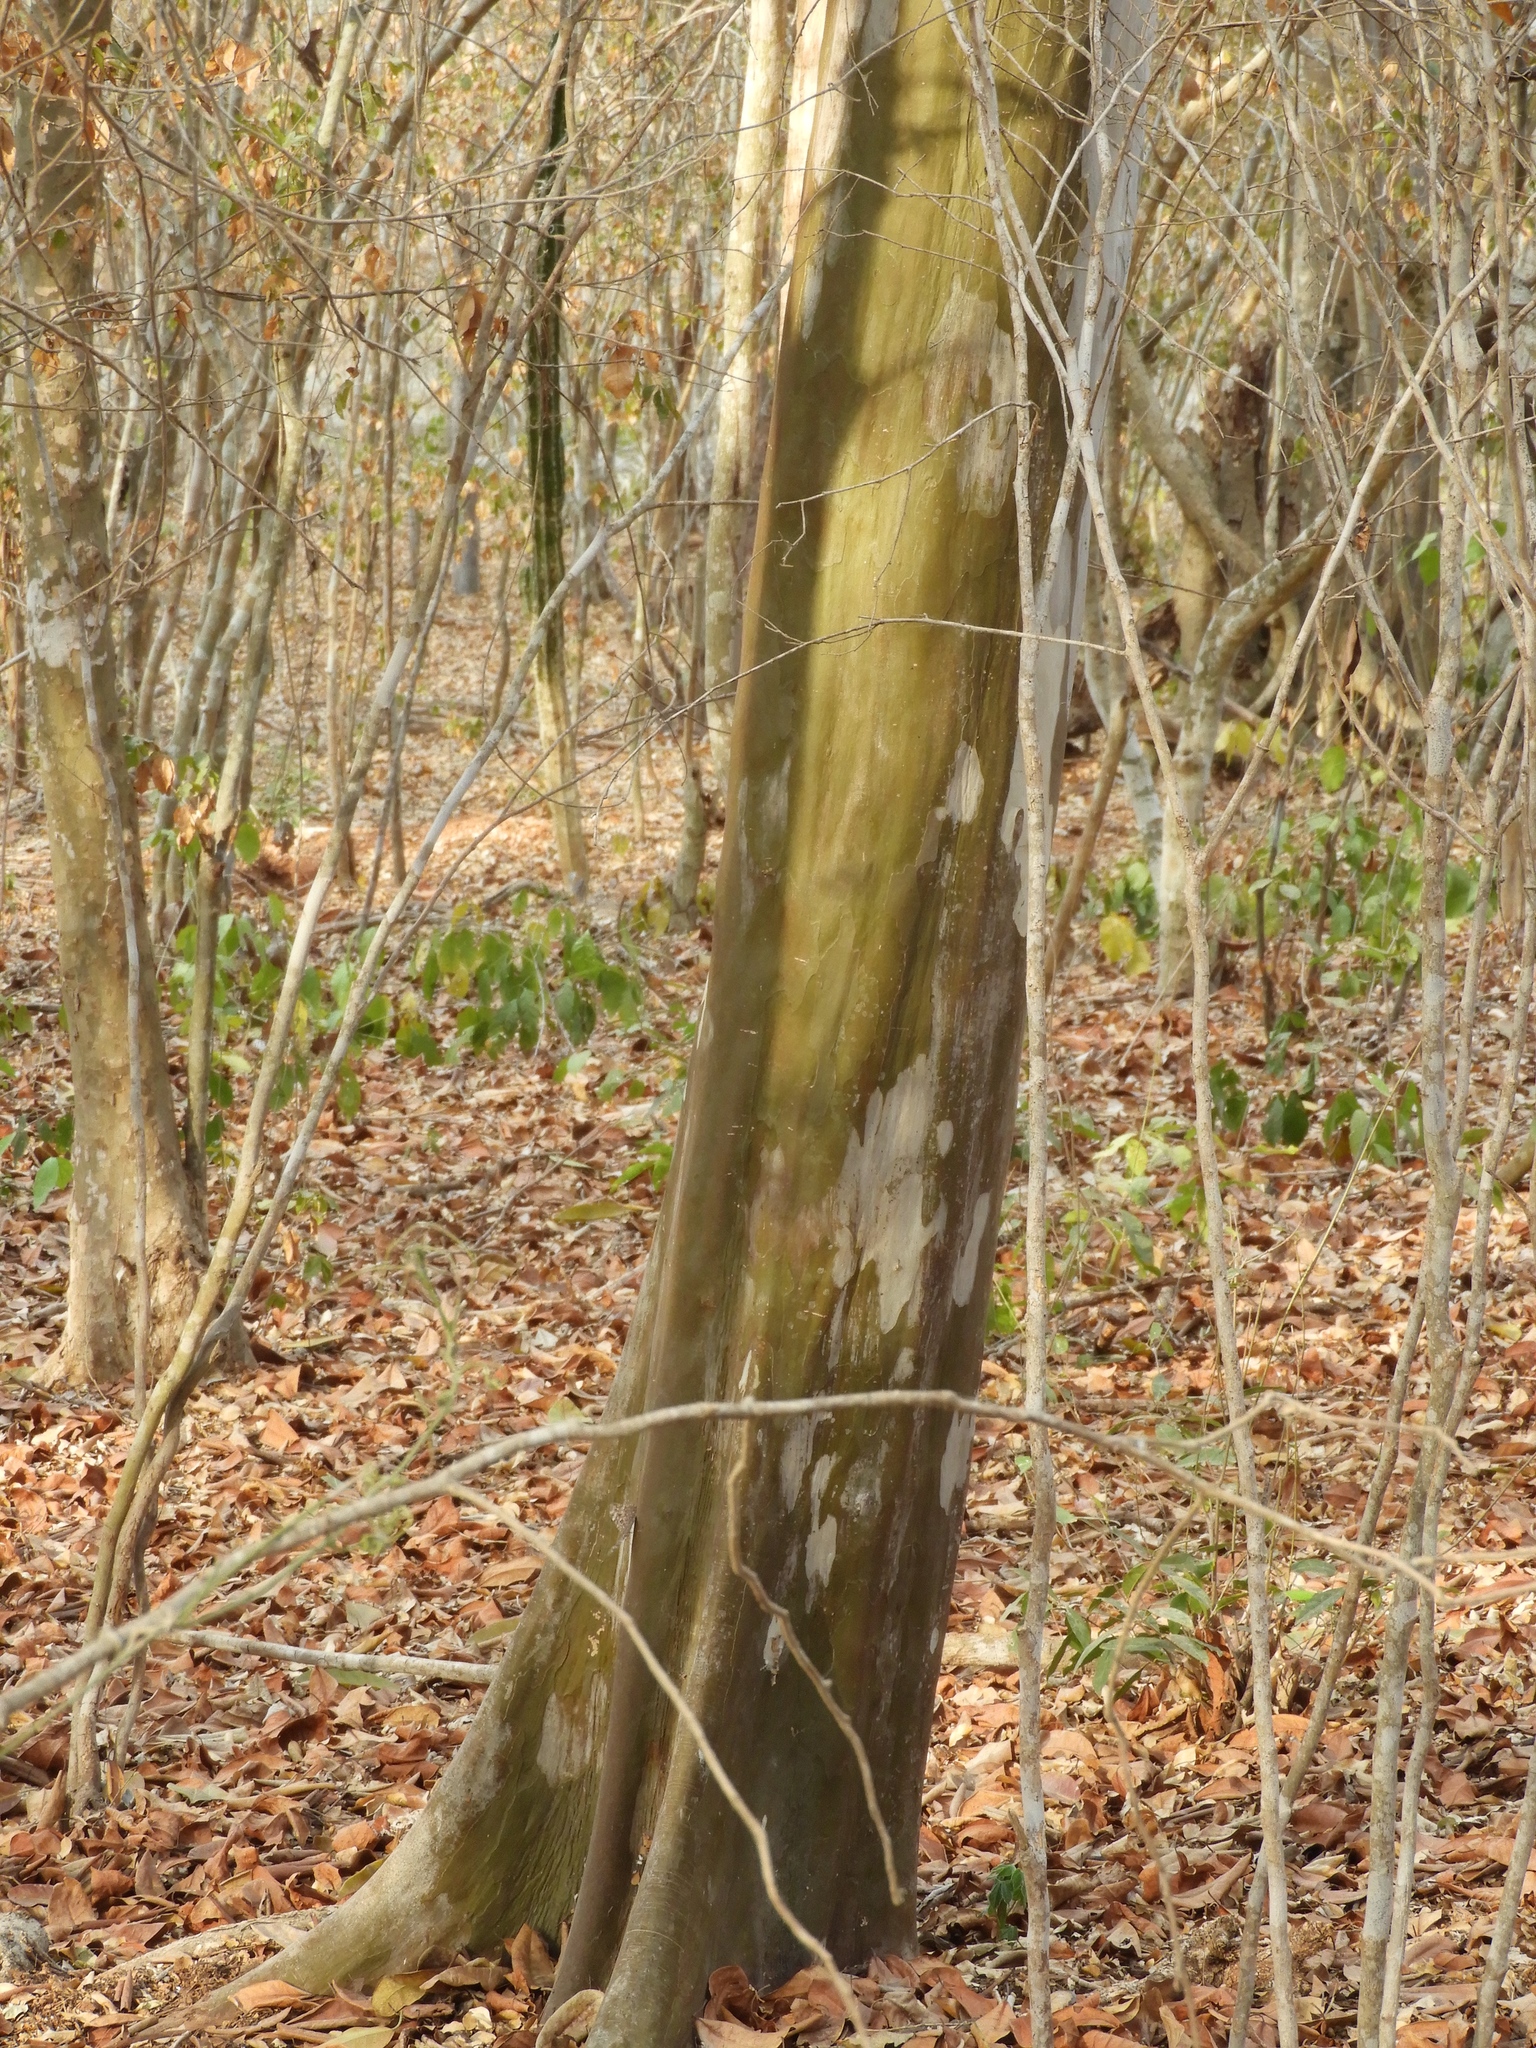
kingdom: Plantae
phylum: Tracheophyta
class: Magnoliopsida
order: Fabales
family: Fabaceae
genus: Libidibia
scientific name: Libidibia sclerocarpa
